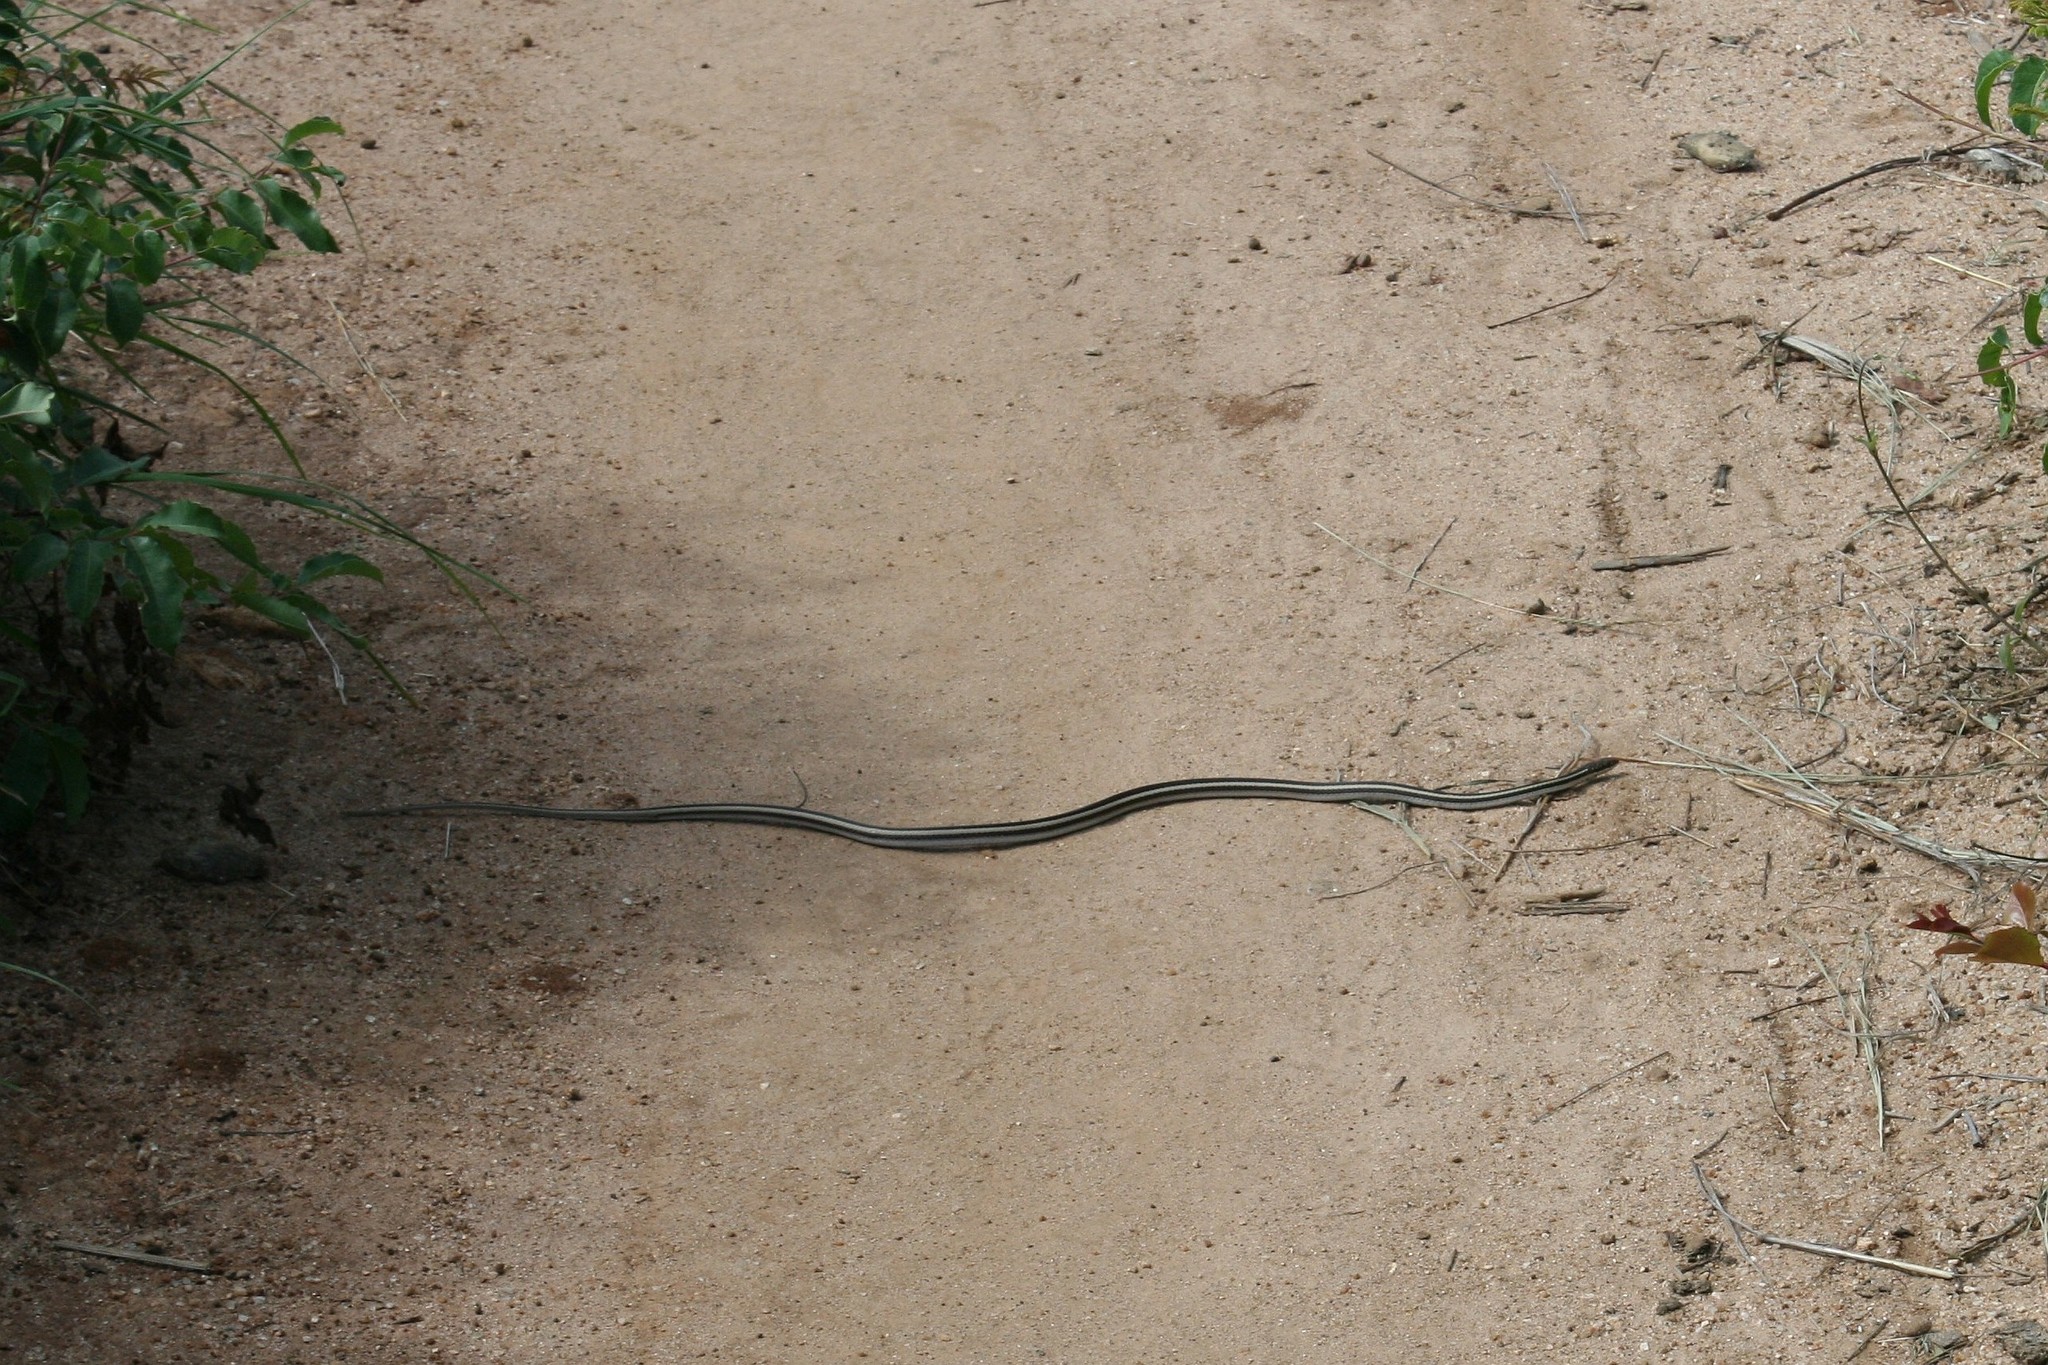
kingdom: Animalia
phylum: Chordata
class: Squamata
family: Pseudoxyrhophiidae
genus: Dromicodryas
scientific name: Dromicodryas bernieri
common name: Bernier's striped snake
